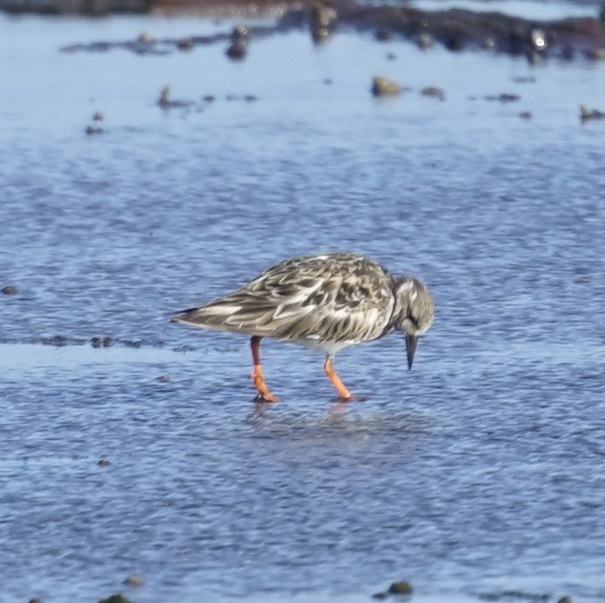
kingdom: Animalia
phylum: Chordata
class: Aves
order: Charadriiformes
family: Scolopacidae
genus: Arenaria
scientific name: Arenaria interpres
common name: Ruddy turnstone
